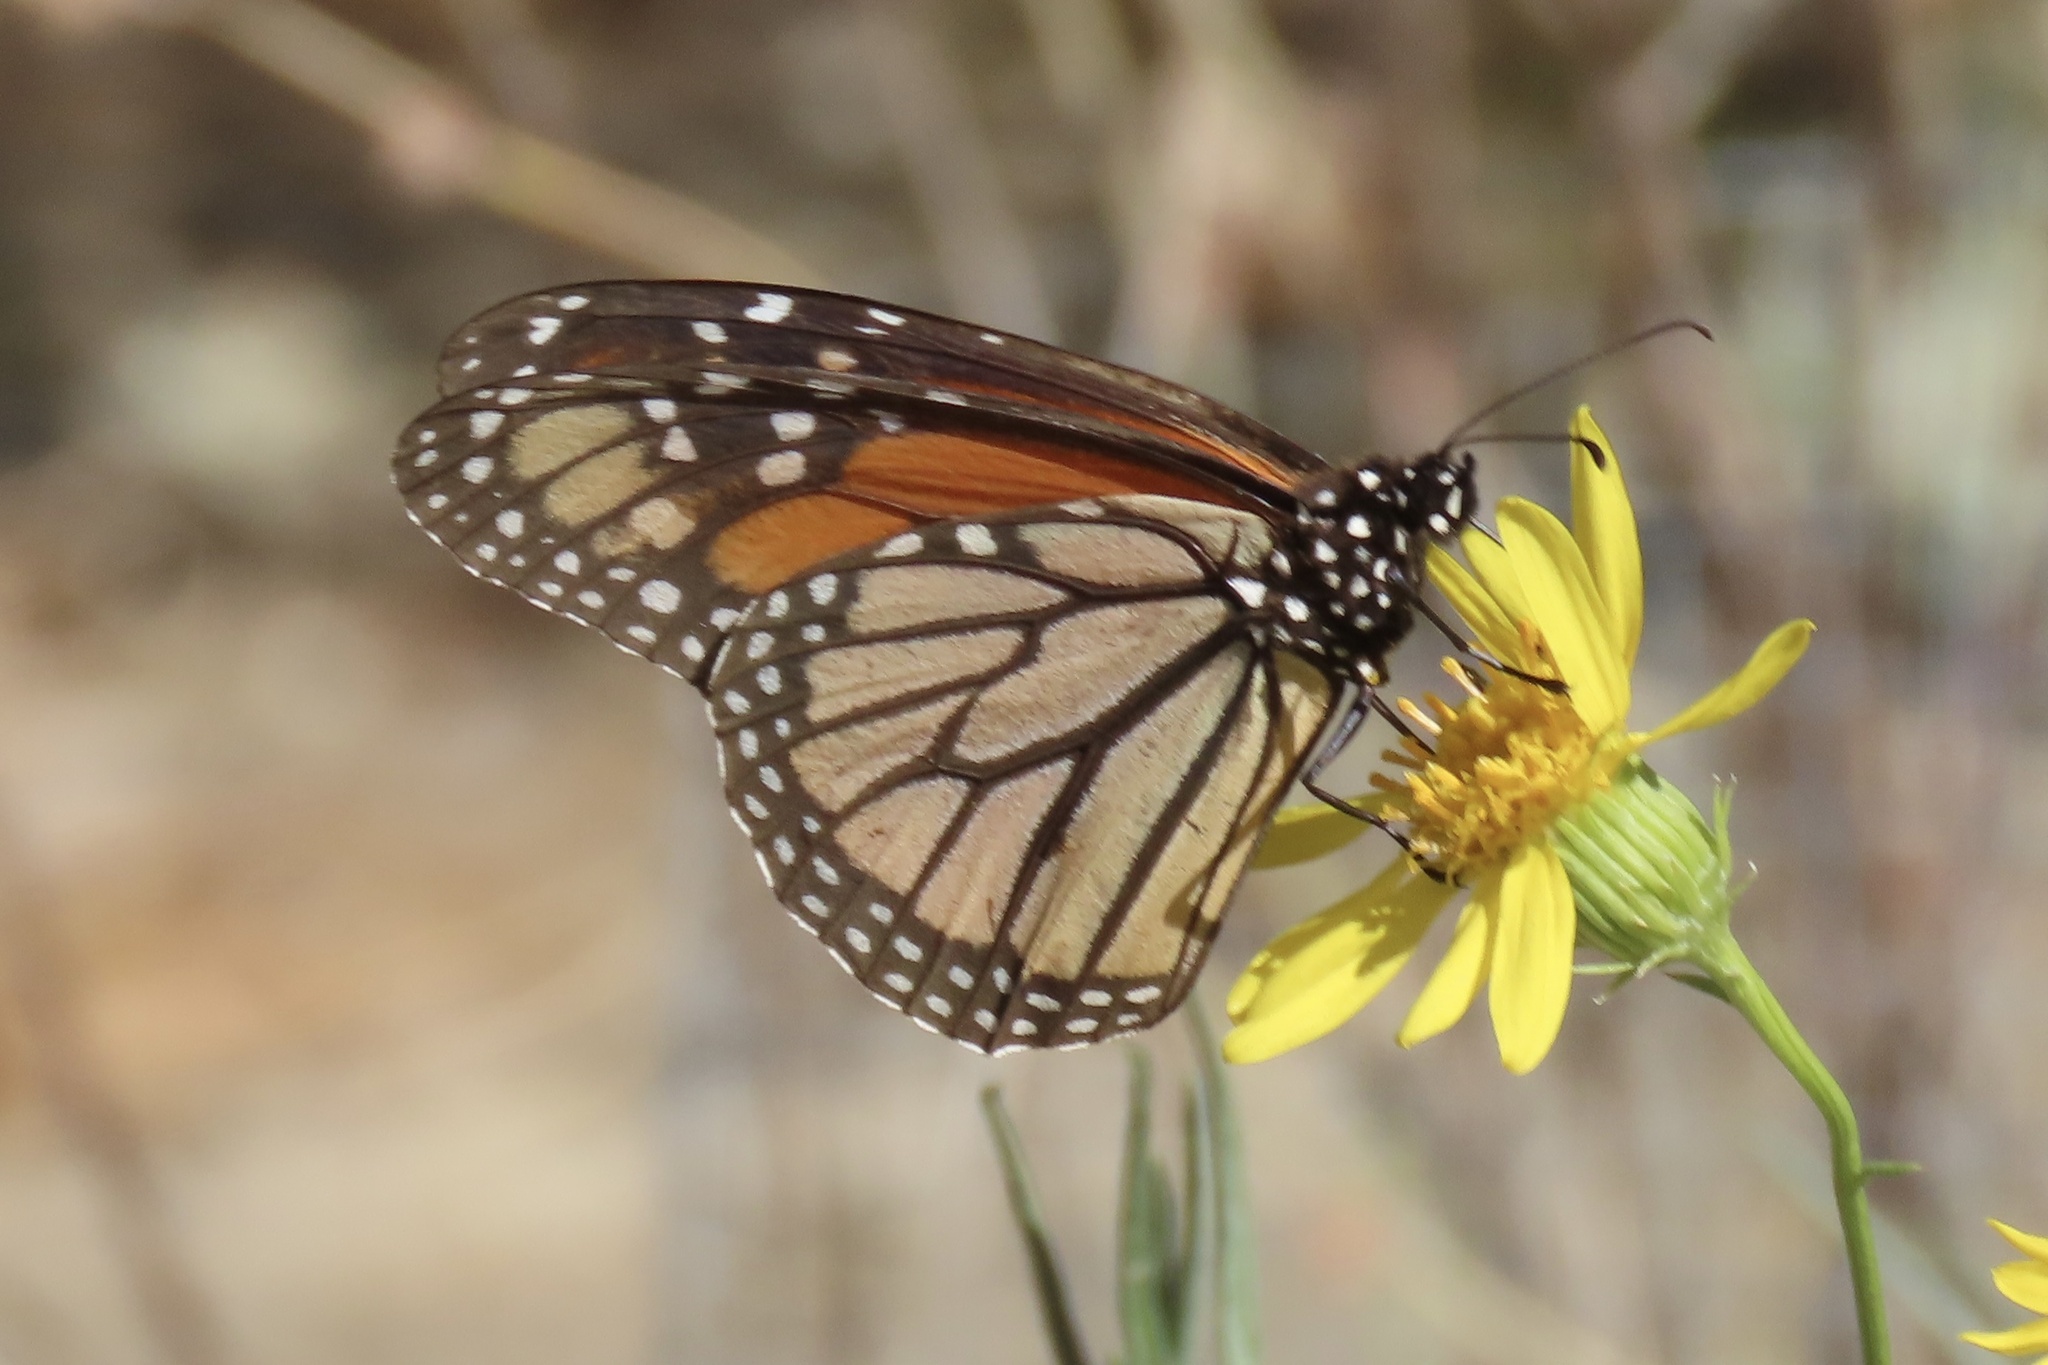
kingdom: Animalia
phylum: Arthropoda
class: Insecta
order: Lepidoptera
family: Nymphalidae
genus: Danaus
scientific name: Danaus plexippus
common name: Monarch
